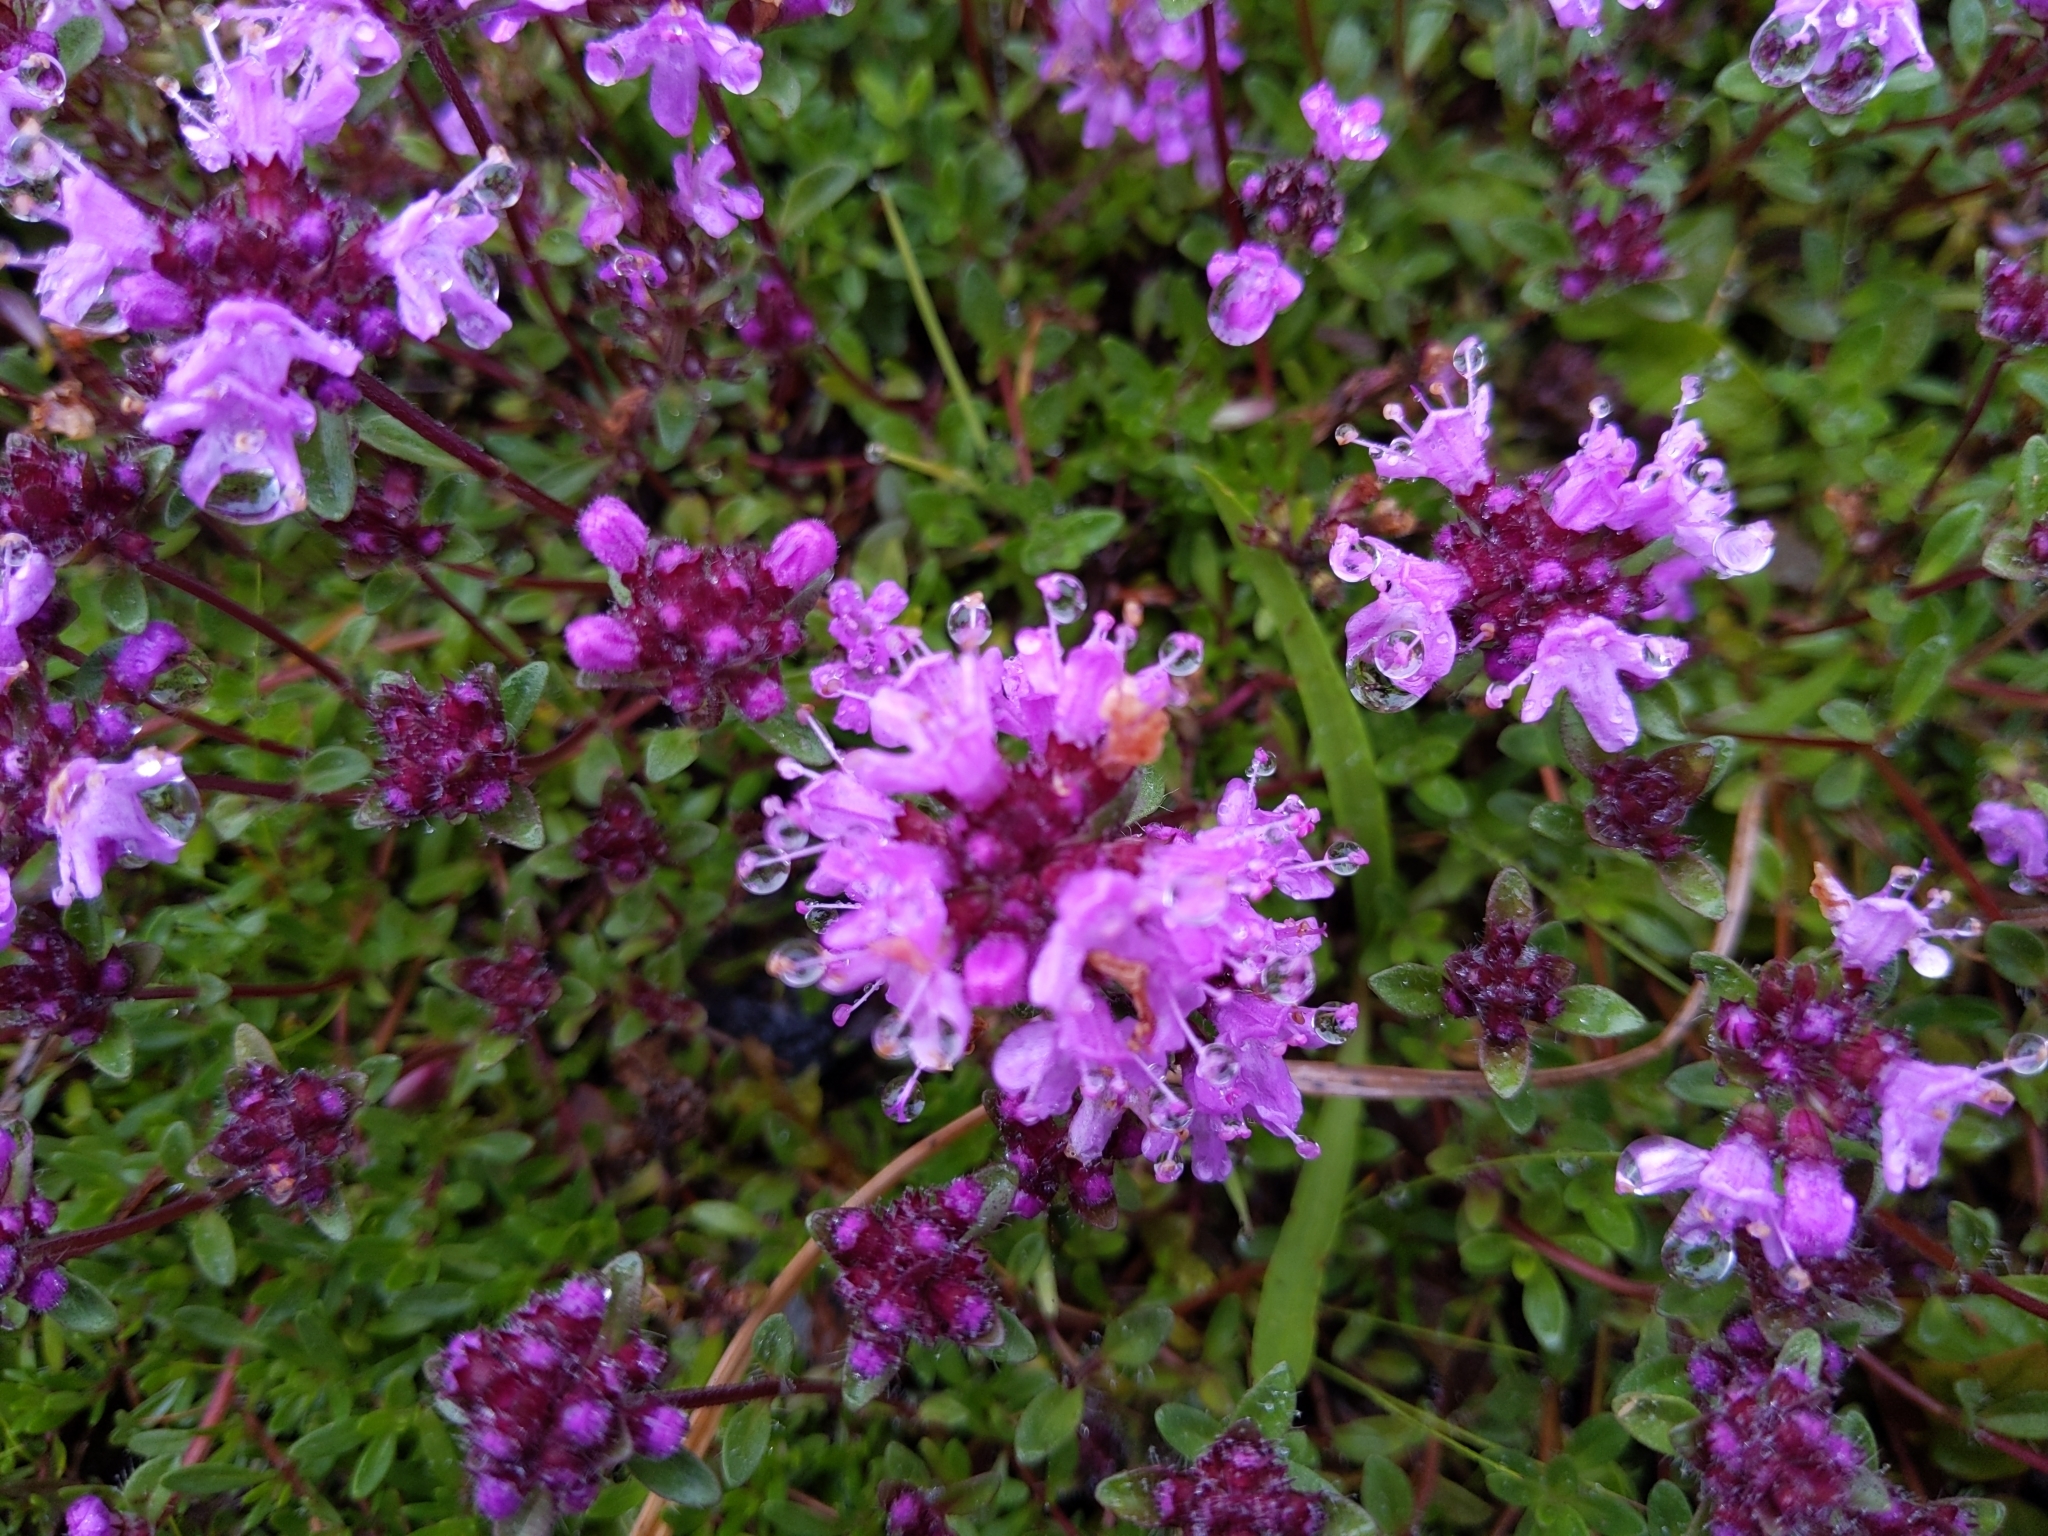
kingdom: Plantae
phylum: Tracheophyta
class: Magnoliopsida
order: Lamiales
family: Lamiaceae
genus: Thymus
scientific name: Thymus praecox
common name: Wild thyme
